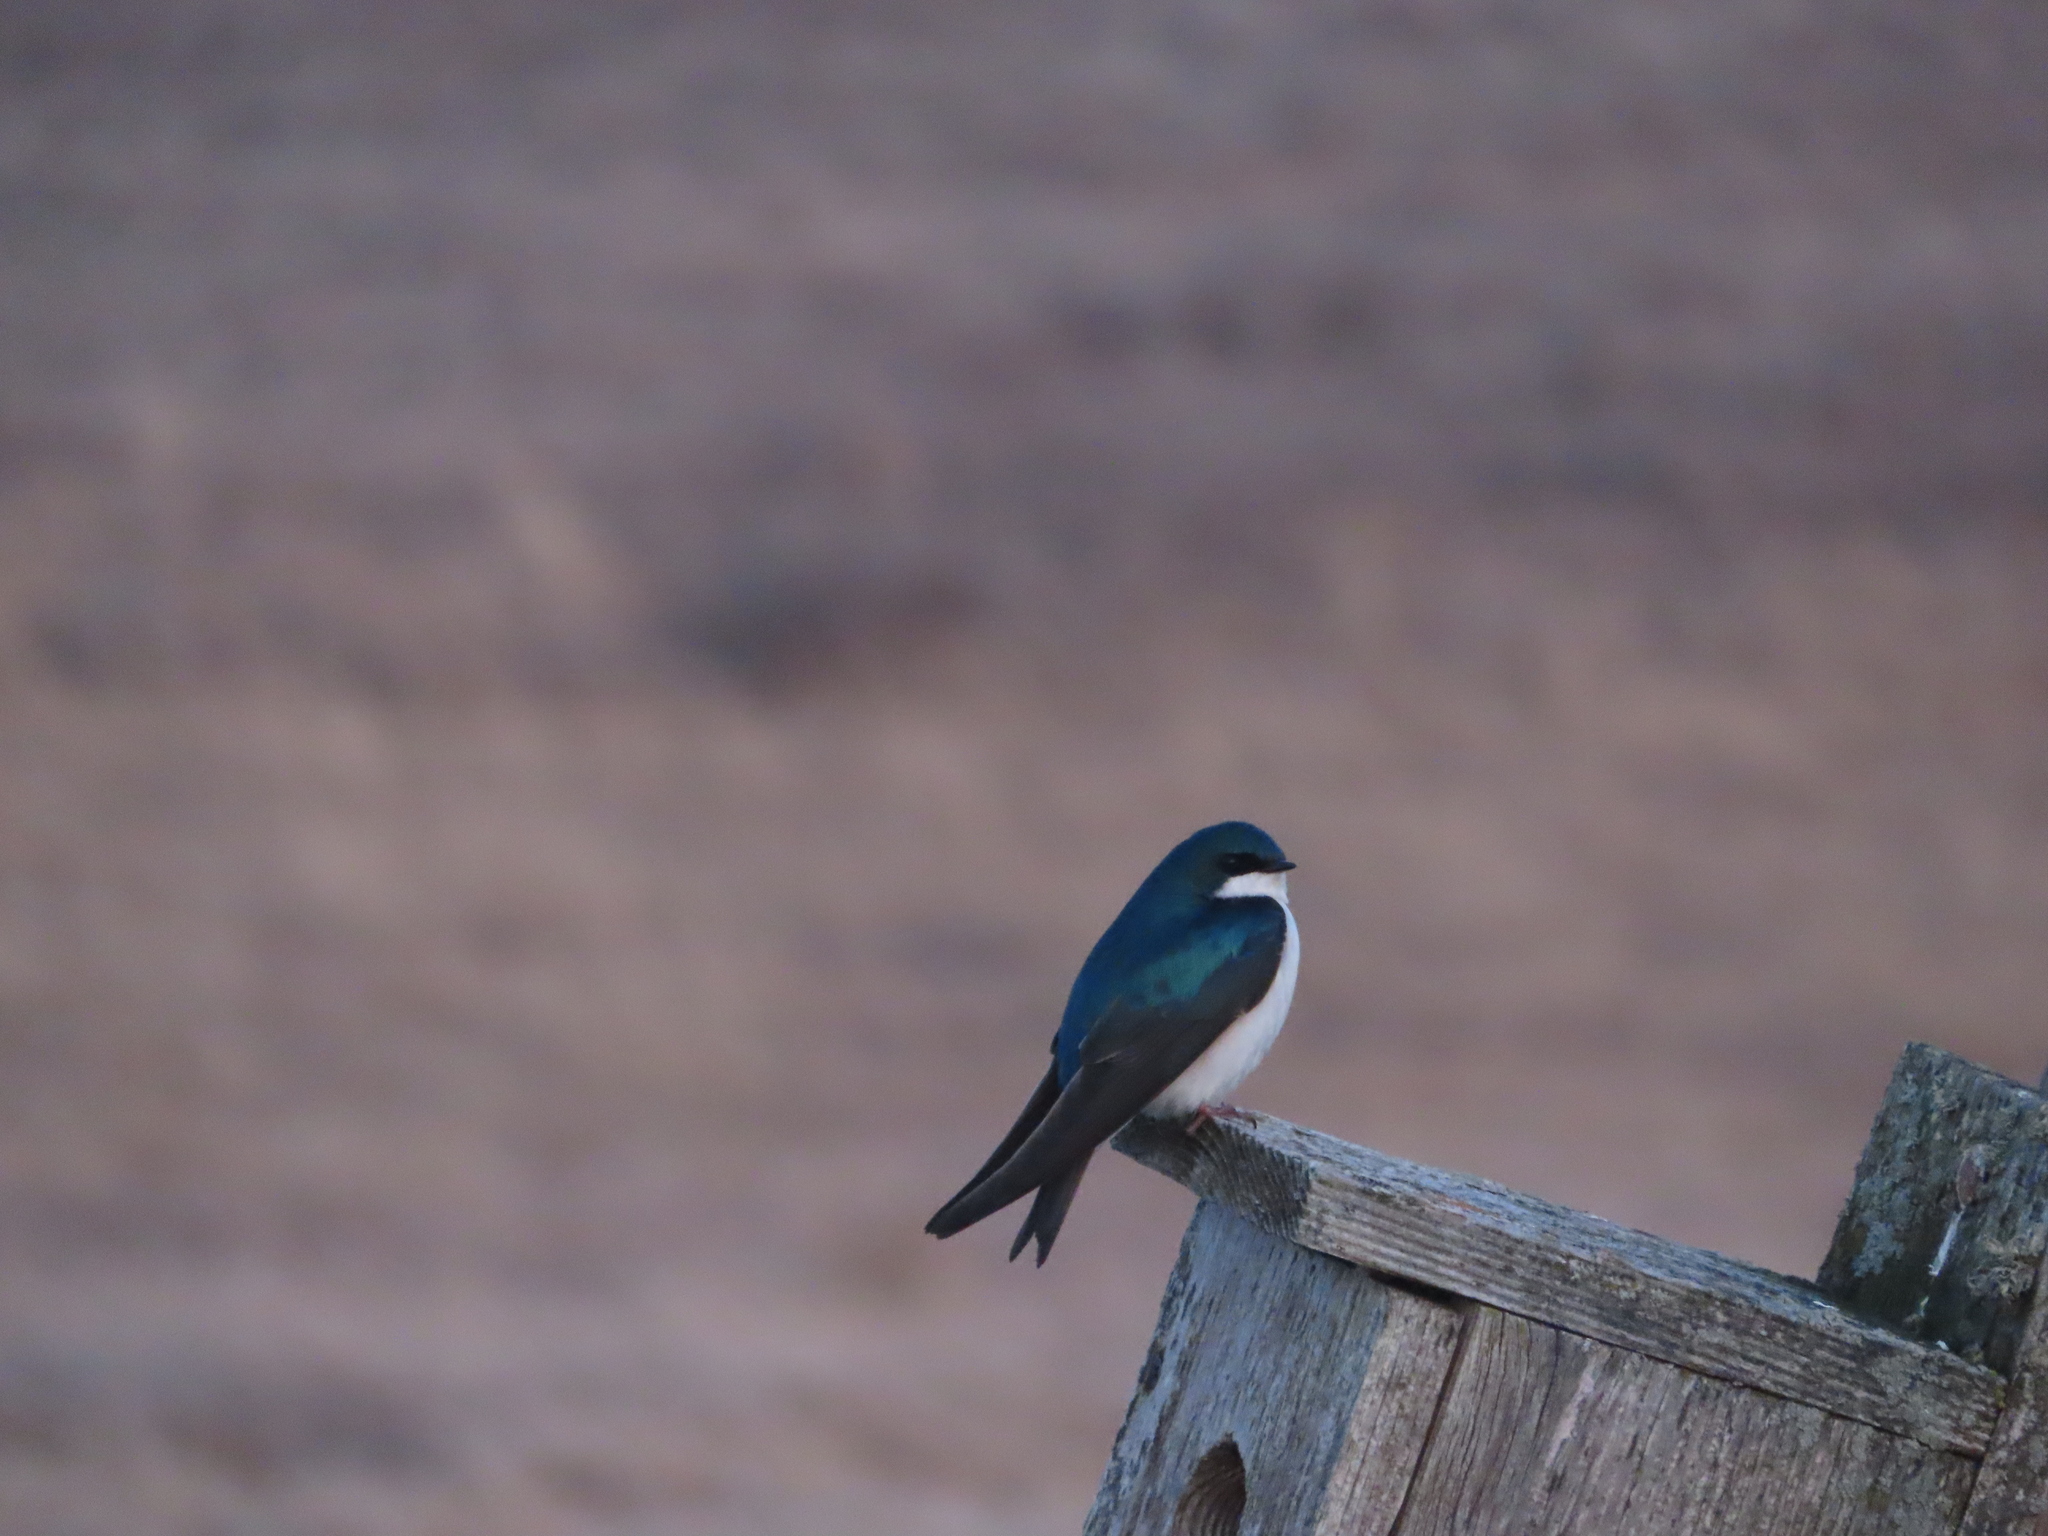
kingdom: Animalia
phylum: Chordata
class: Aves
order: Passeriformes
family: Hirundinidae
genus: Tachycineta
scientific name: Tachycineta bicolor
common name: Tree swallow
